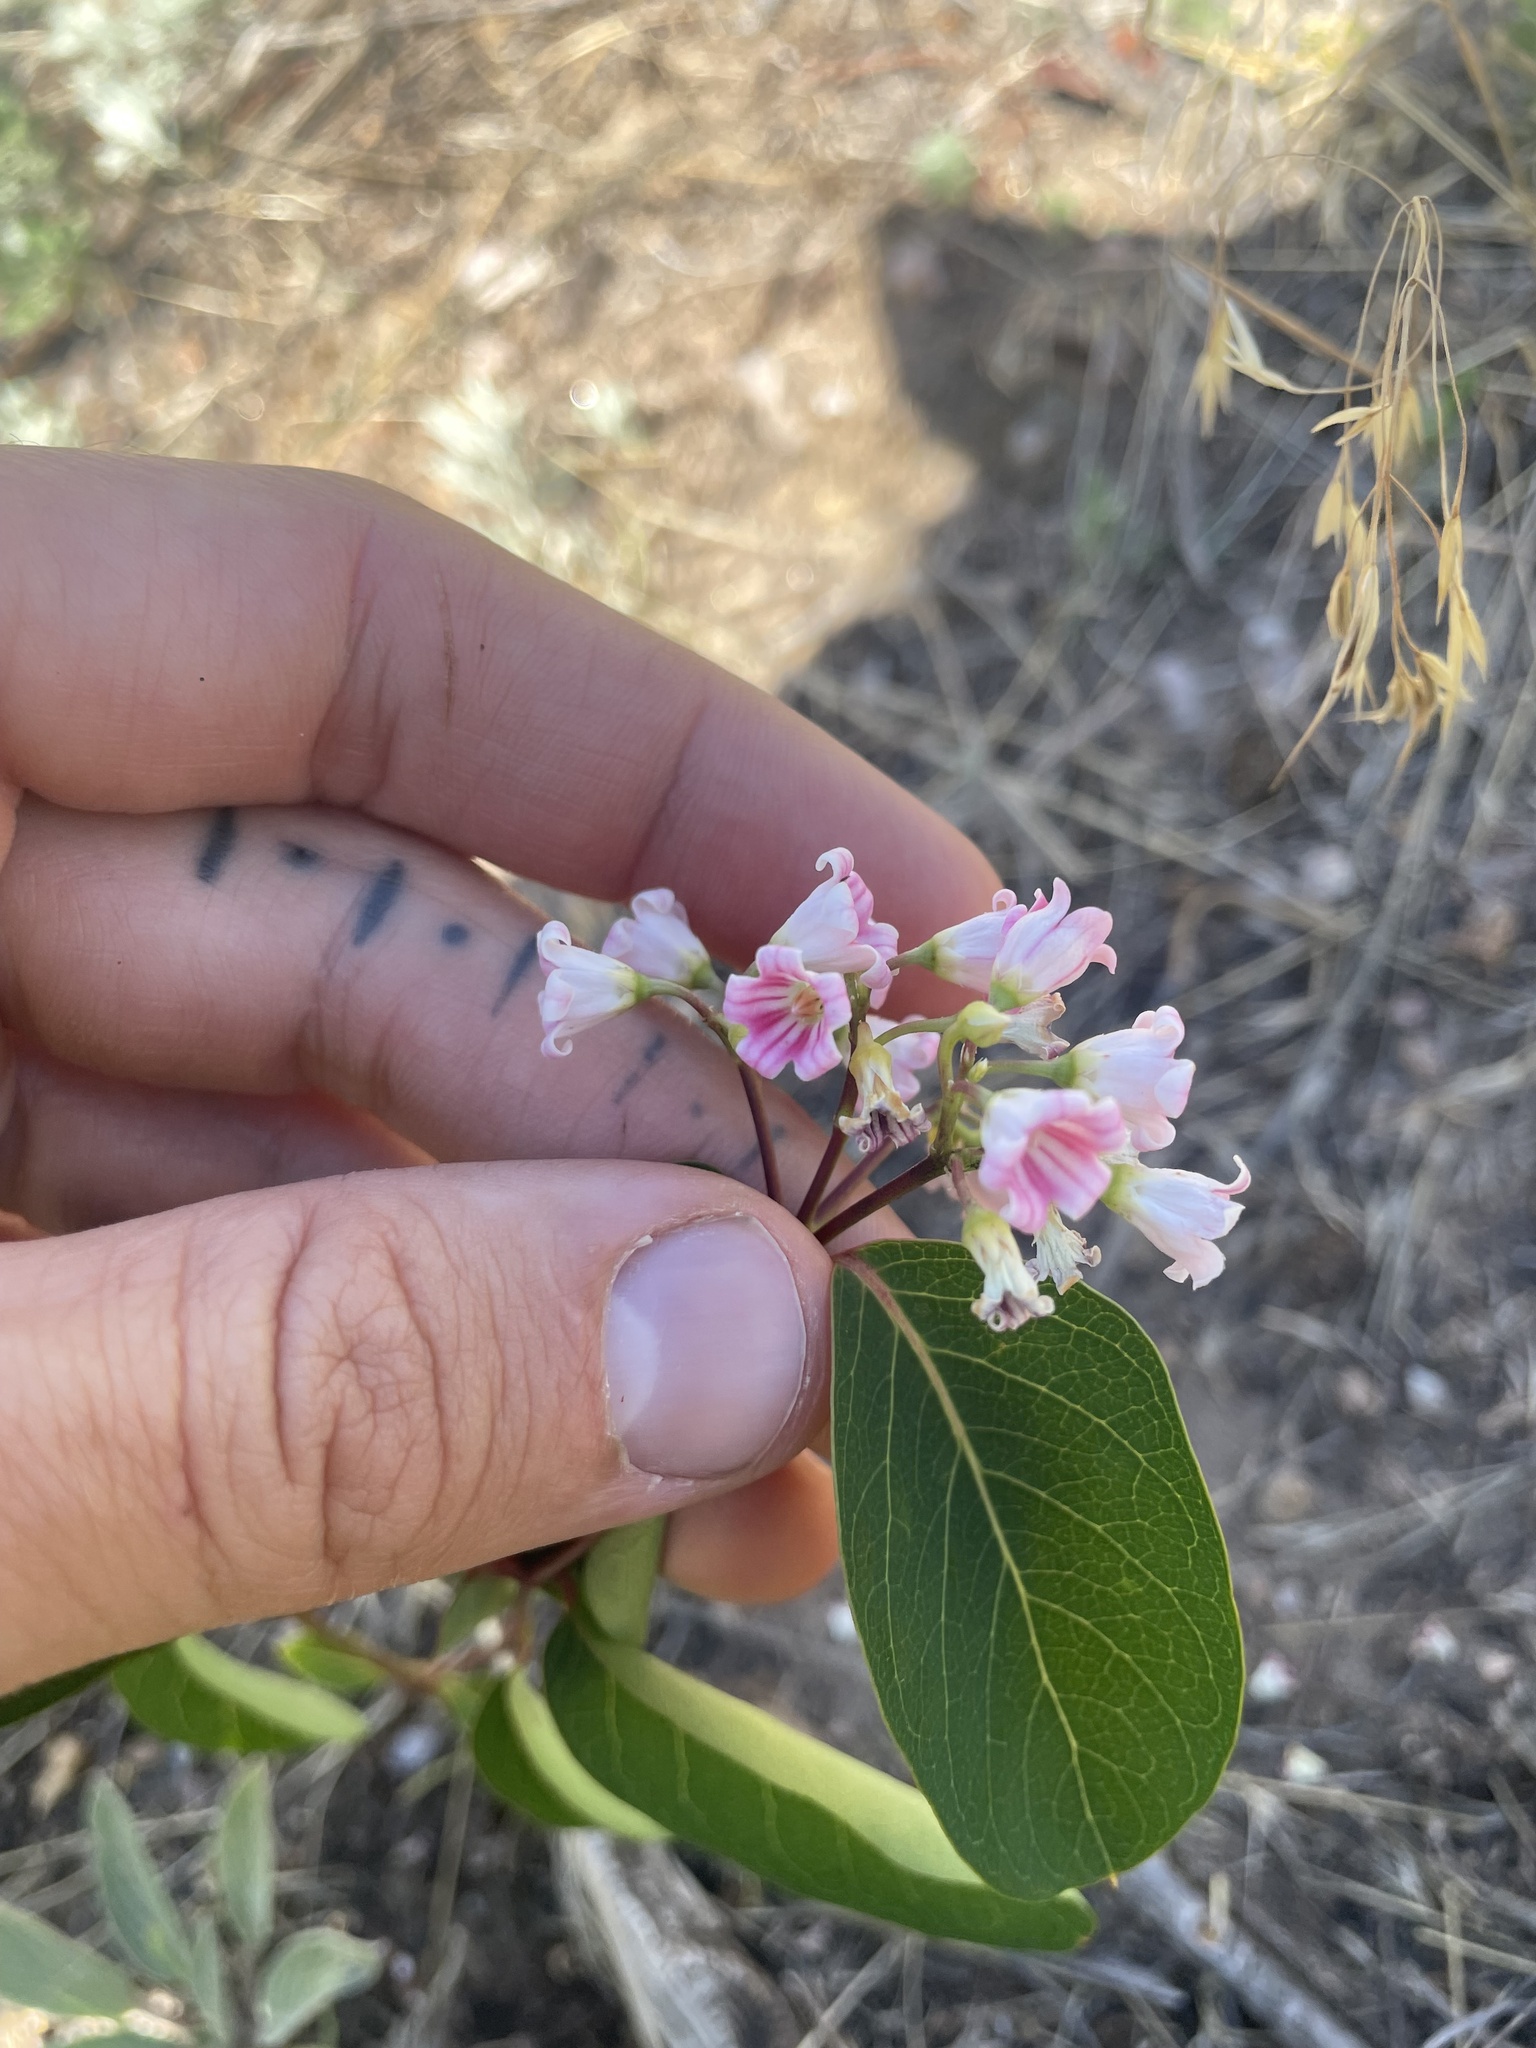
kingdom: Plantae
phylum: Tracheophyta
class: Magnoliopsida
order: Gentianales
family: Apocynaceae
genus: Apocynum
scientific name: Apocynum androsaemifolium
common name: Spreading dogbane
